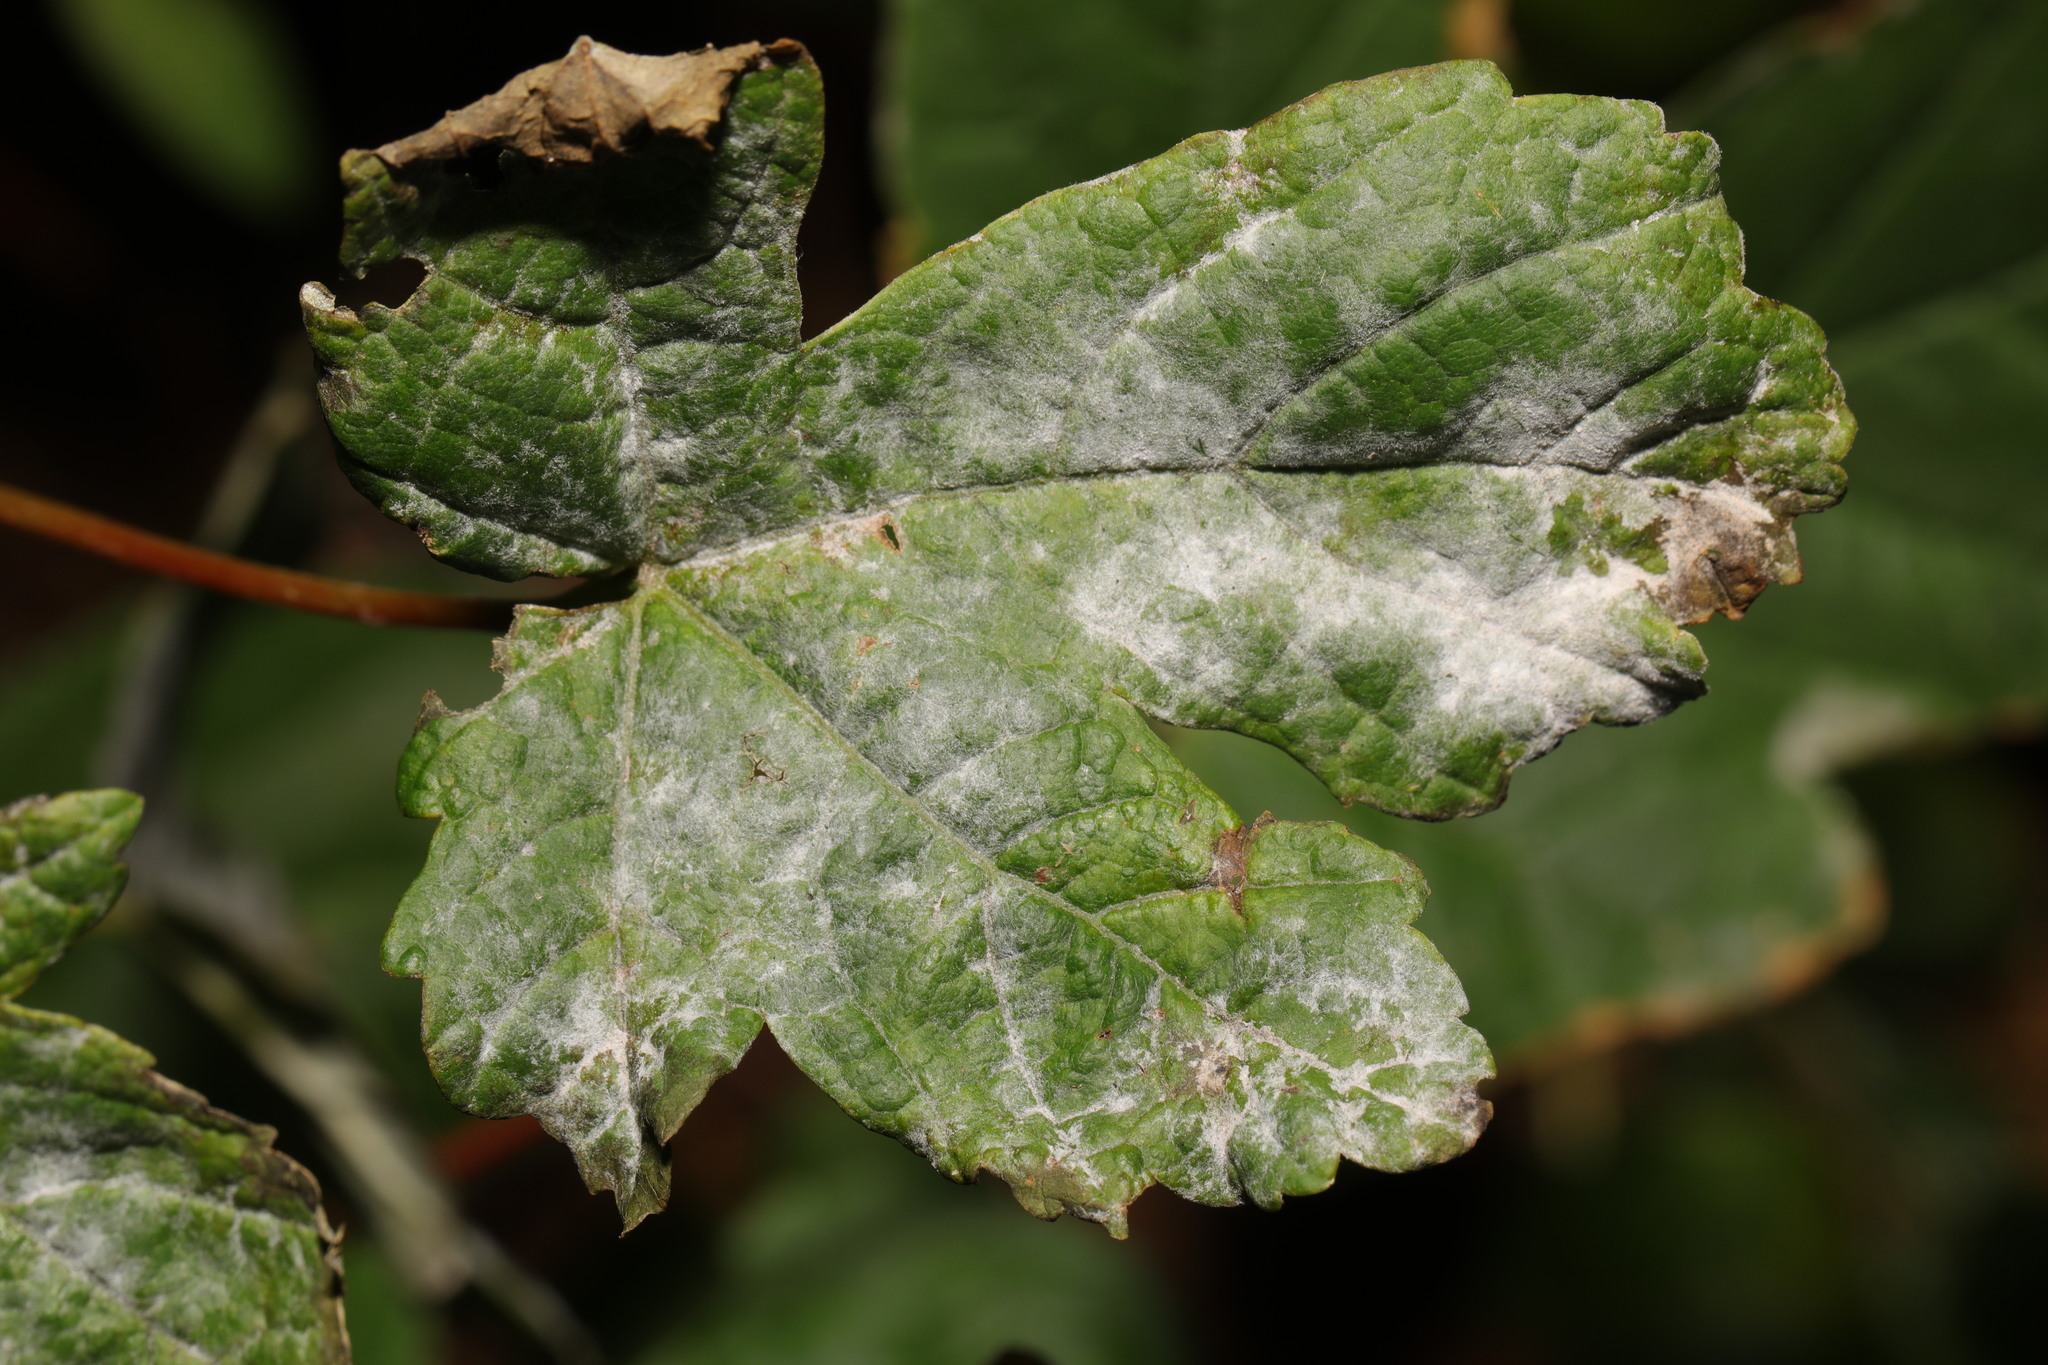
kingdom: Fungi
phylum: Ascomycota
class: Leotiomycetes
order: Helotiales
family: Erysiphaceae
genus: Sawadaea
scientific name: Sawadaea bicornis
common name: Maple mildew
